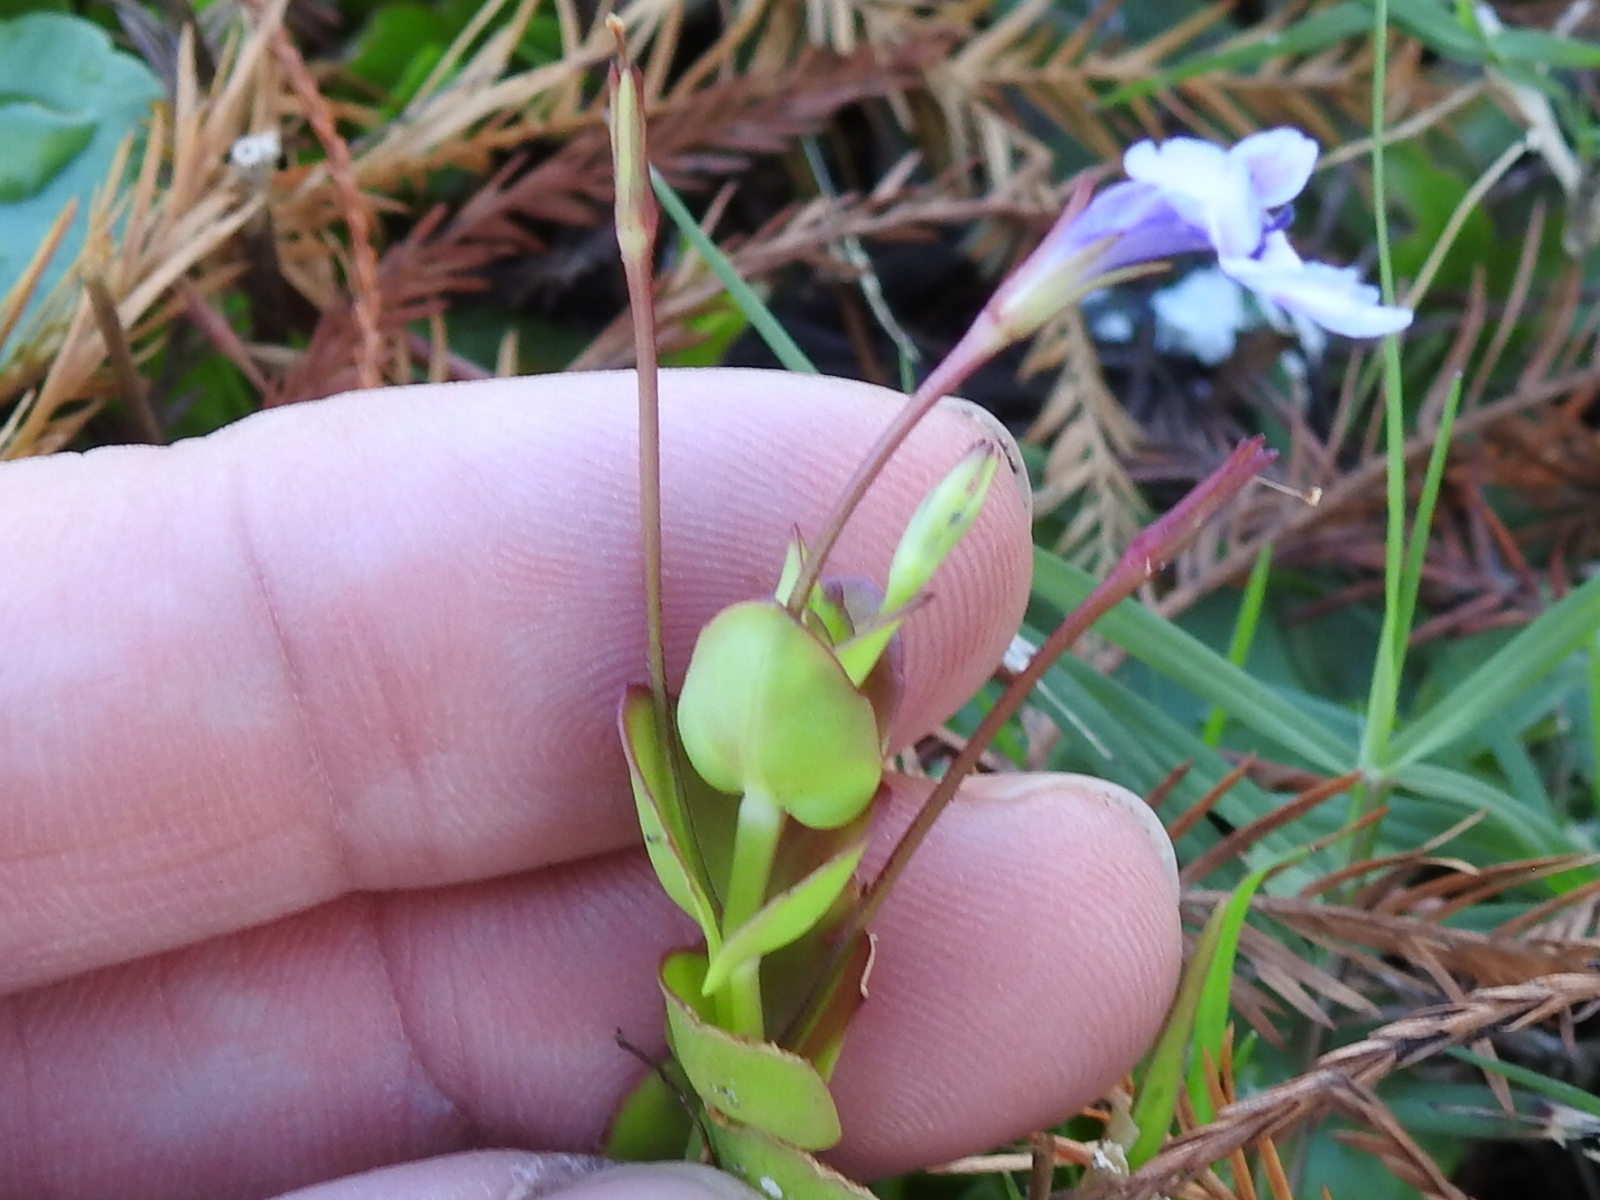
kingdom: Plantae
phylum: Tracheophyta
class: Magnoliopsida
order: Lamiales
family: Linderniaceae
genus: Lindernia
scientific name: Lindernia grandiflora
